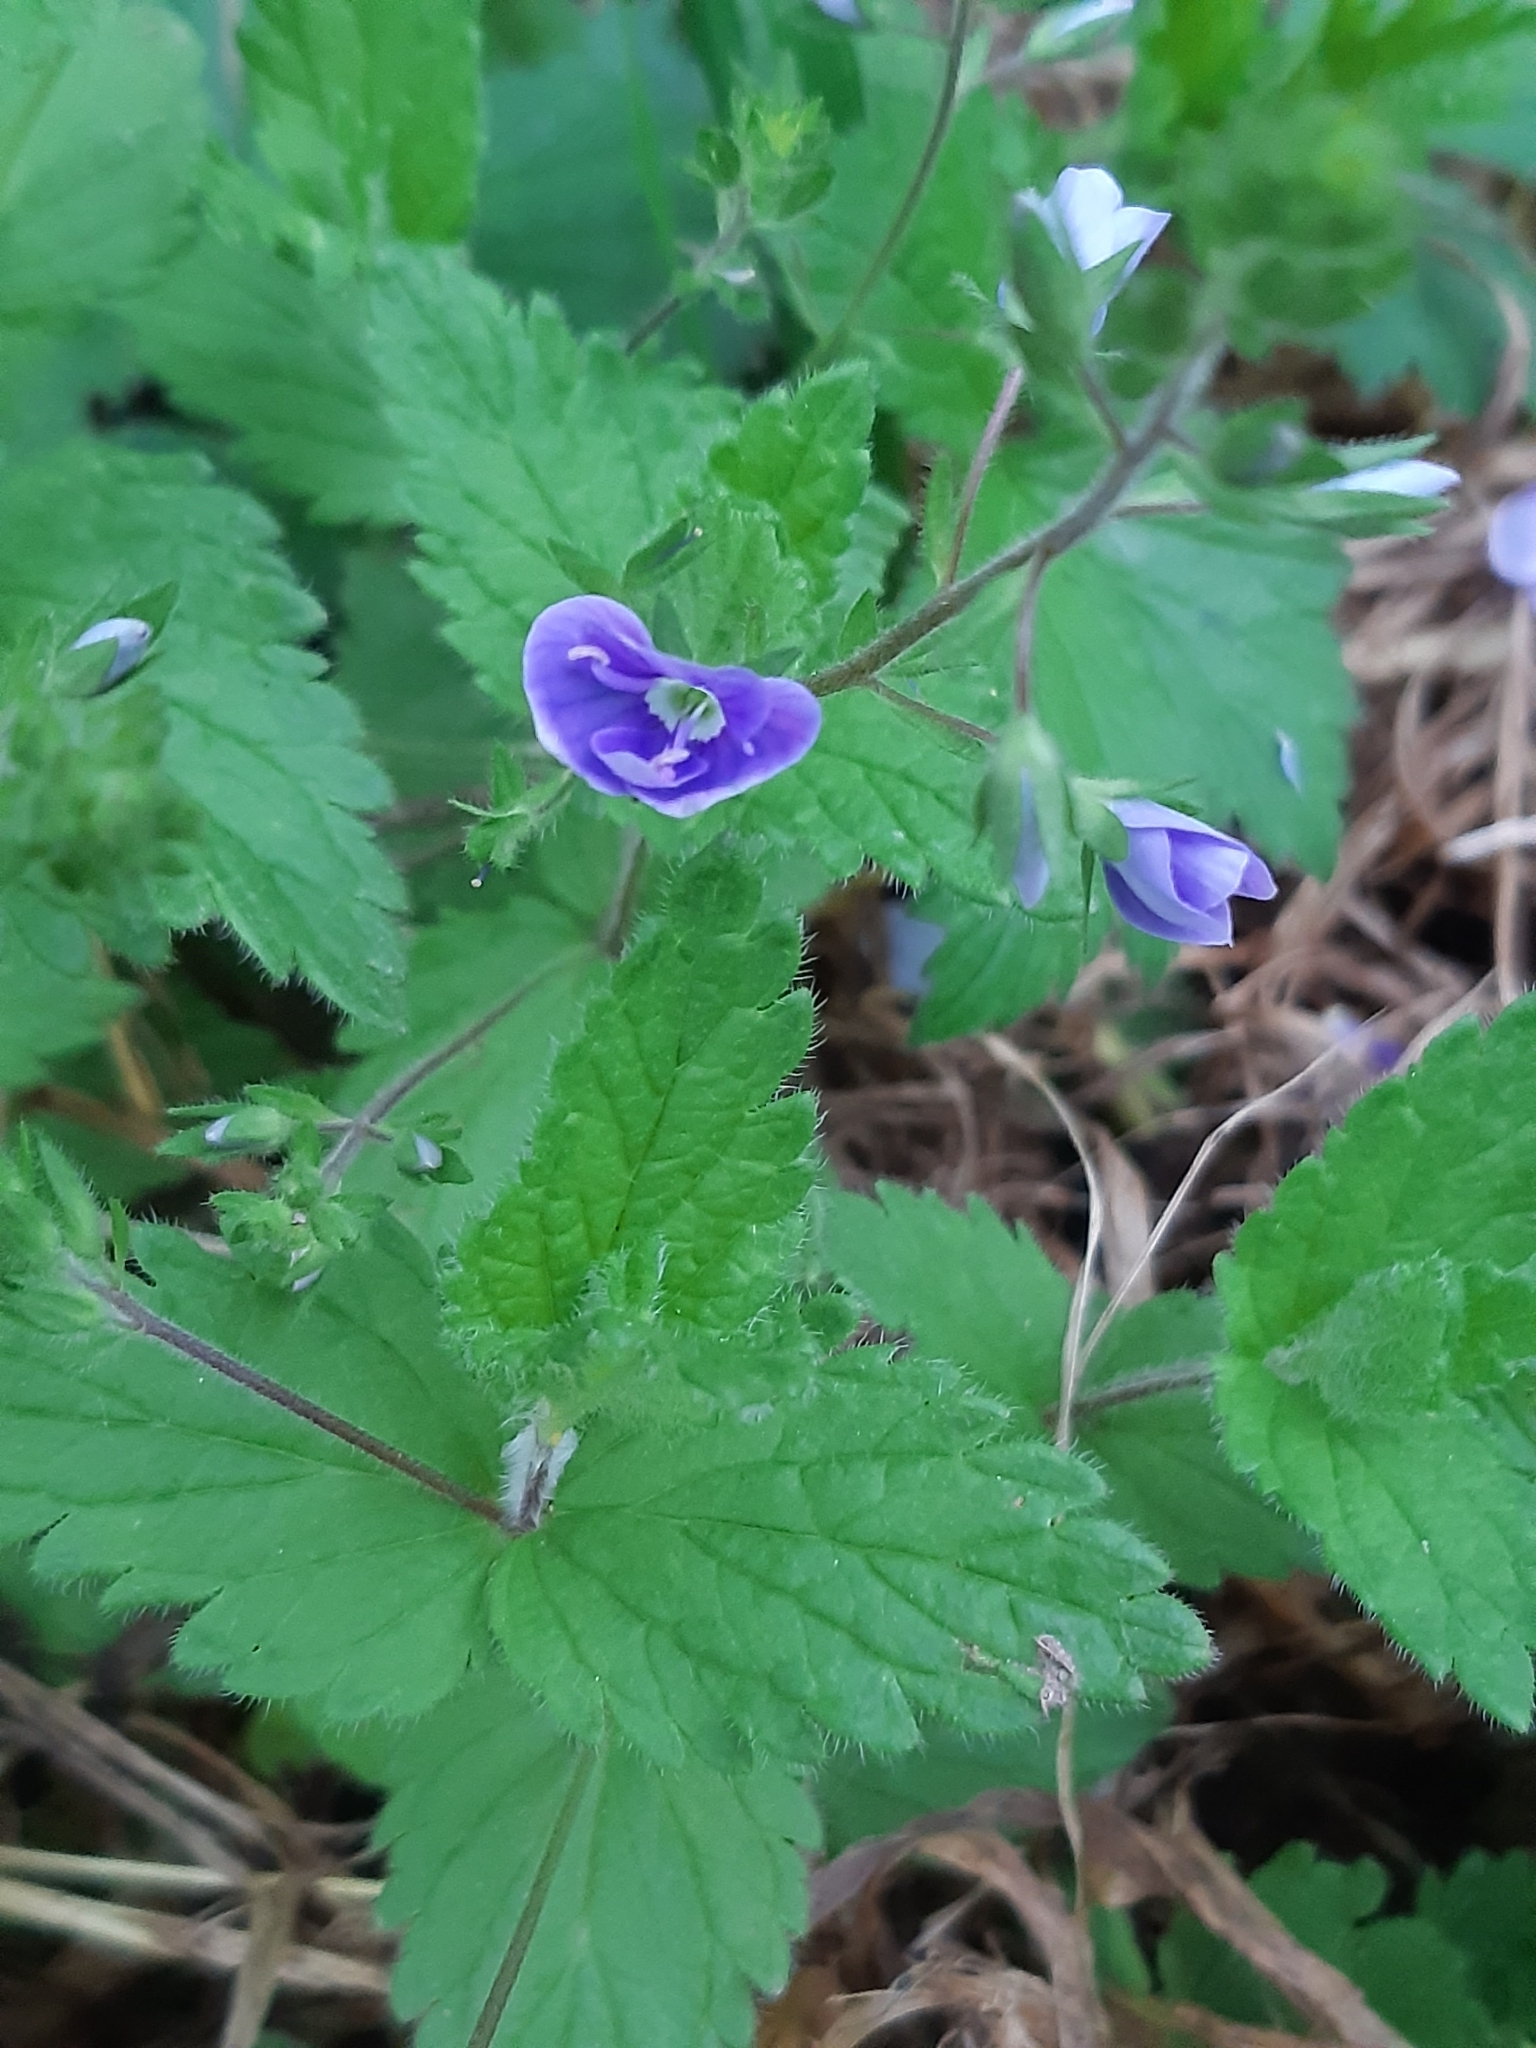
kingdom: Plantae
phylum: Tracheophyta
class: Magnoliopsida
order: Lamiales
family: Plantaginaceae
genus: Veronica
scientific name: Veronica chamaedrys
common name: Germander speedwell
